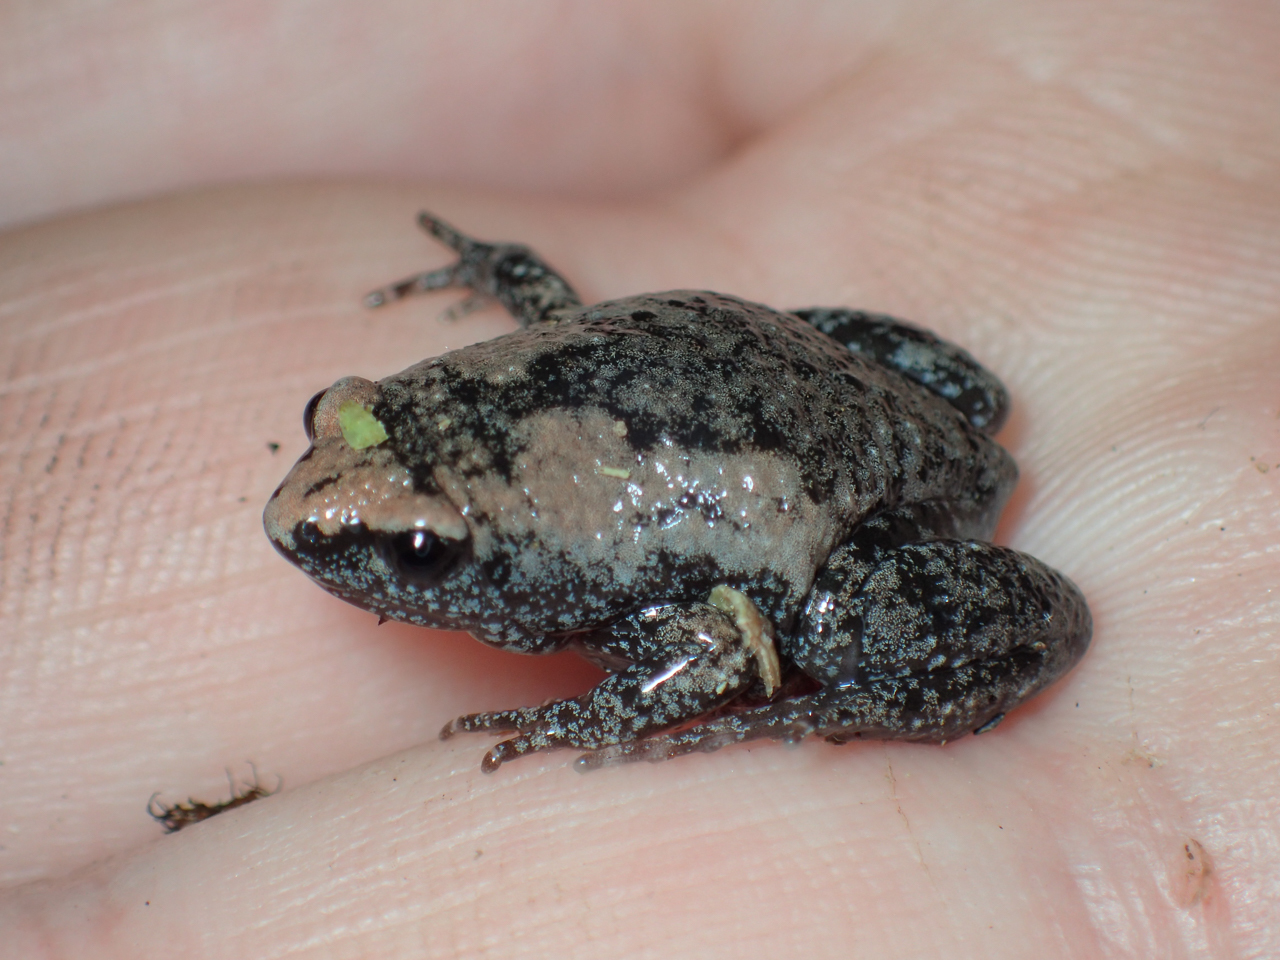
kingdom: Animalia
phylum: Chordata
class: Amphibia
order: Anura
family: Microhylidae
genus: Gastrophryne
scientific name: Gastrophryne carolinensis
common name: Eastern narrowmouth toad
